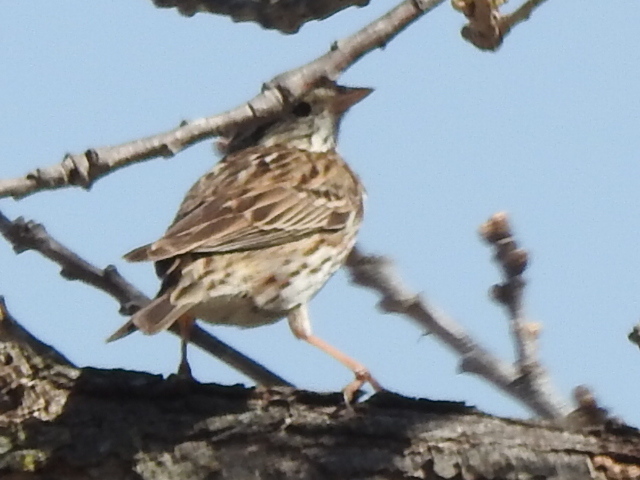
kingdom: Animalia
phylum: Chordata
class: Aves
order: Passeriformes
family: Passerellidae
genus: Passerculus
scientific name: Passerculus sandwichensis
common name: Savannah sparrow
